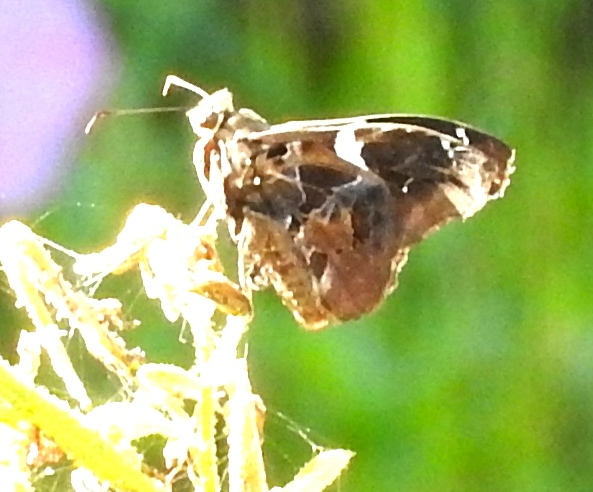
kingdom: Animalia
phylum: Arthropoda
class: Insecta
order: Lepidoptera
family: Hesperiidae
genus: Spathilepia
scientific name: Spathilepia clonius
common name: Falcate skipper
